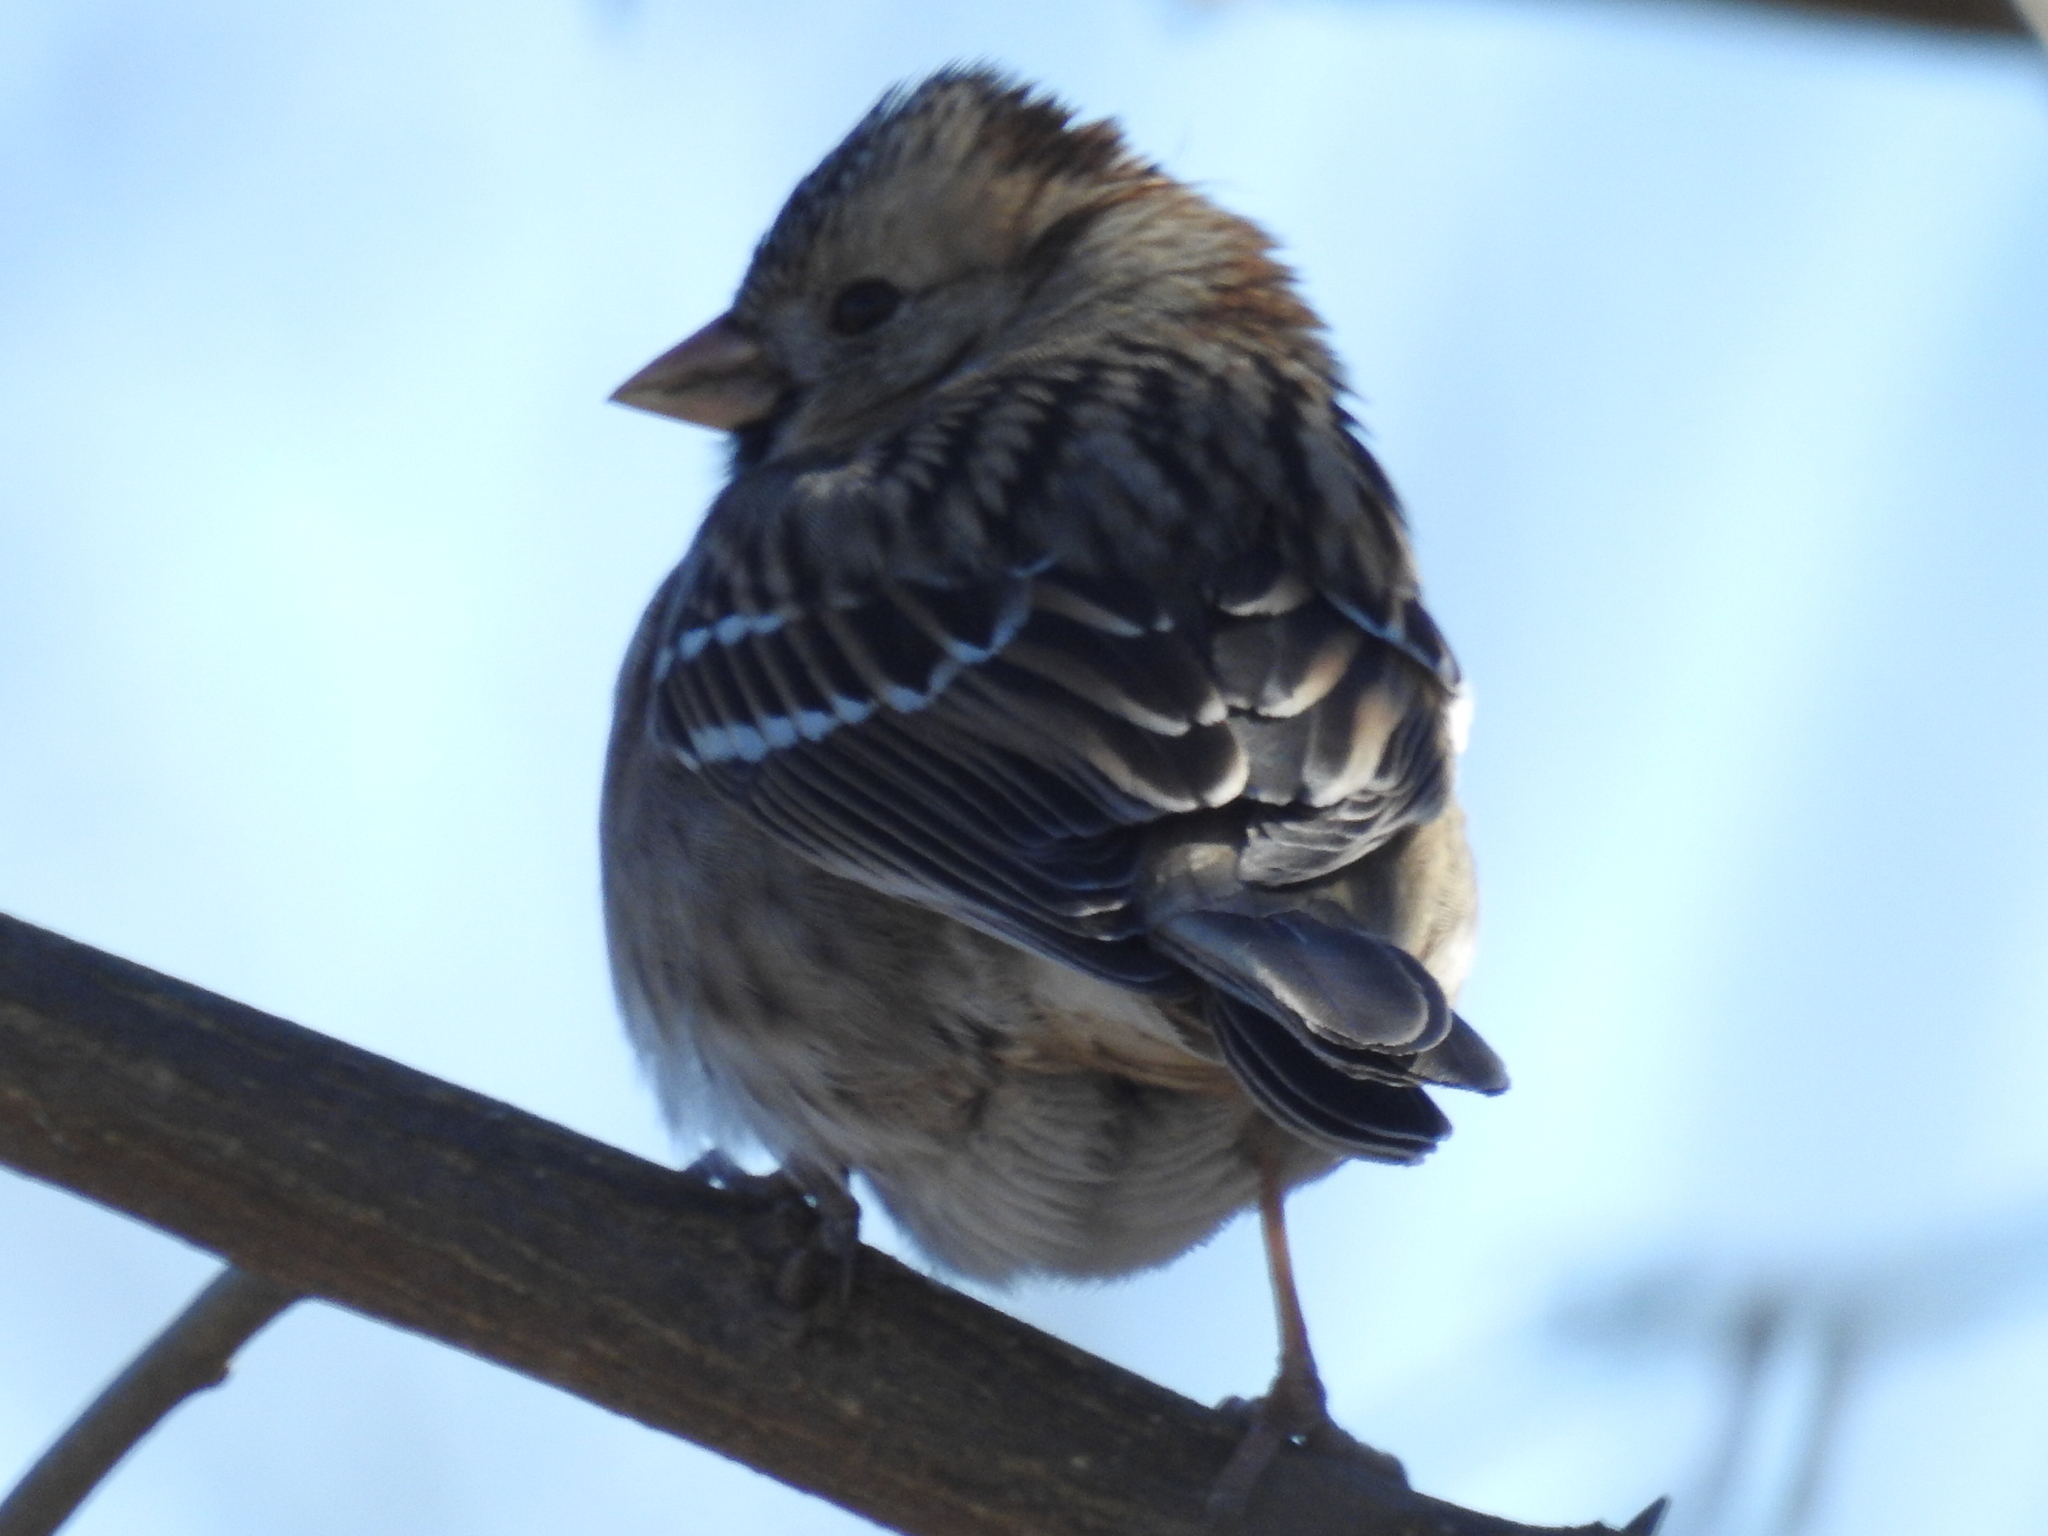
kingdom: Animalia
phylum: Chordata
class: Aves
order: Passeriformes
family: Passerellidae
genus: Zonotrichia
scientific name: Zonotrichia querula
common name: Harris's sparrow
